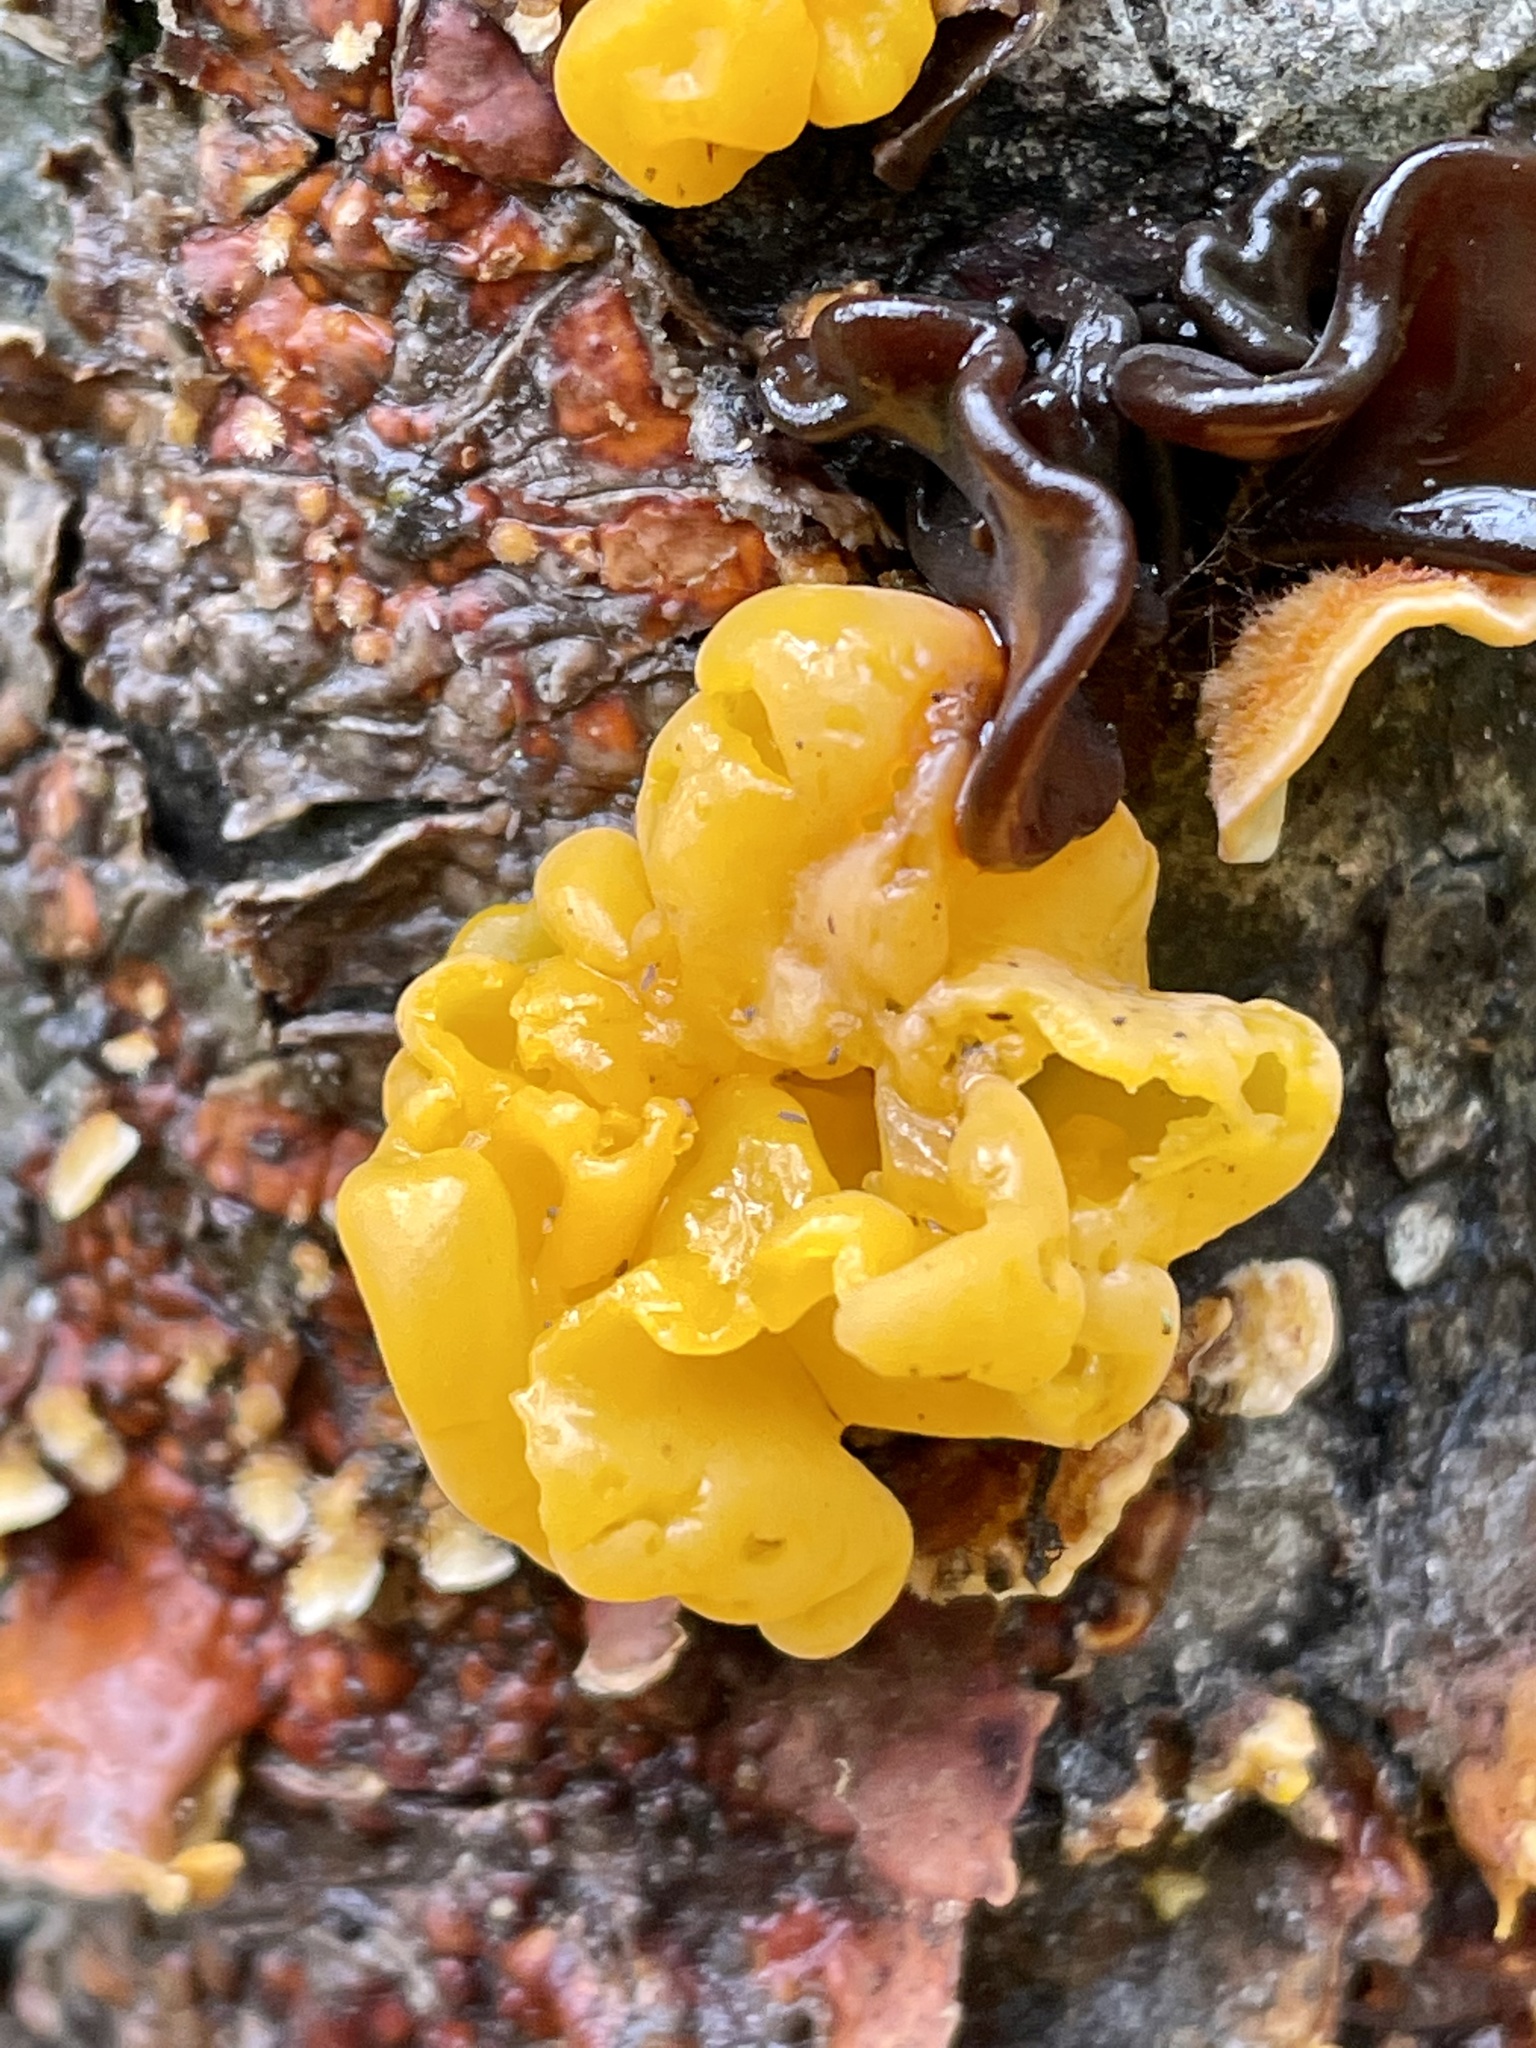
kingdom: Fungi
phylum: Basidiomycota
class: Tremellomycetes
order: Tremellales
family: Naemateliaceae
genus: Naematelia
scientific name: Naematelia aurantia
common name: Golden ear
